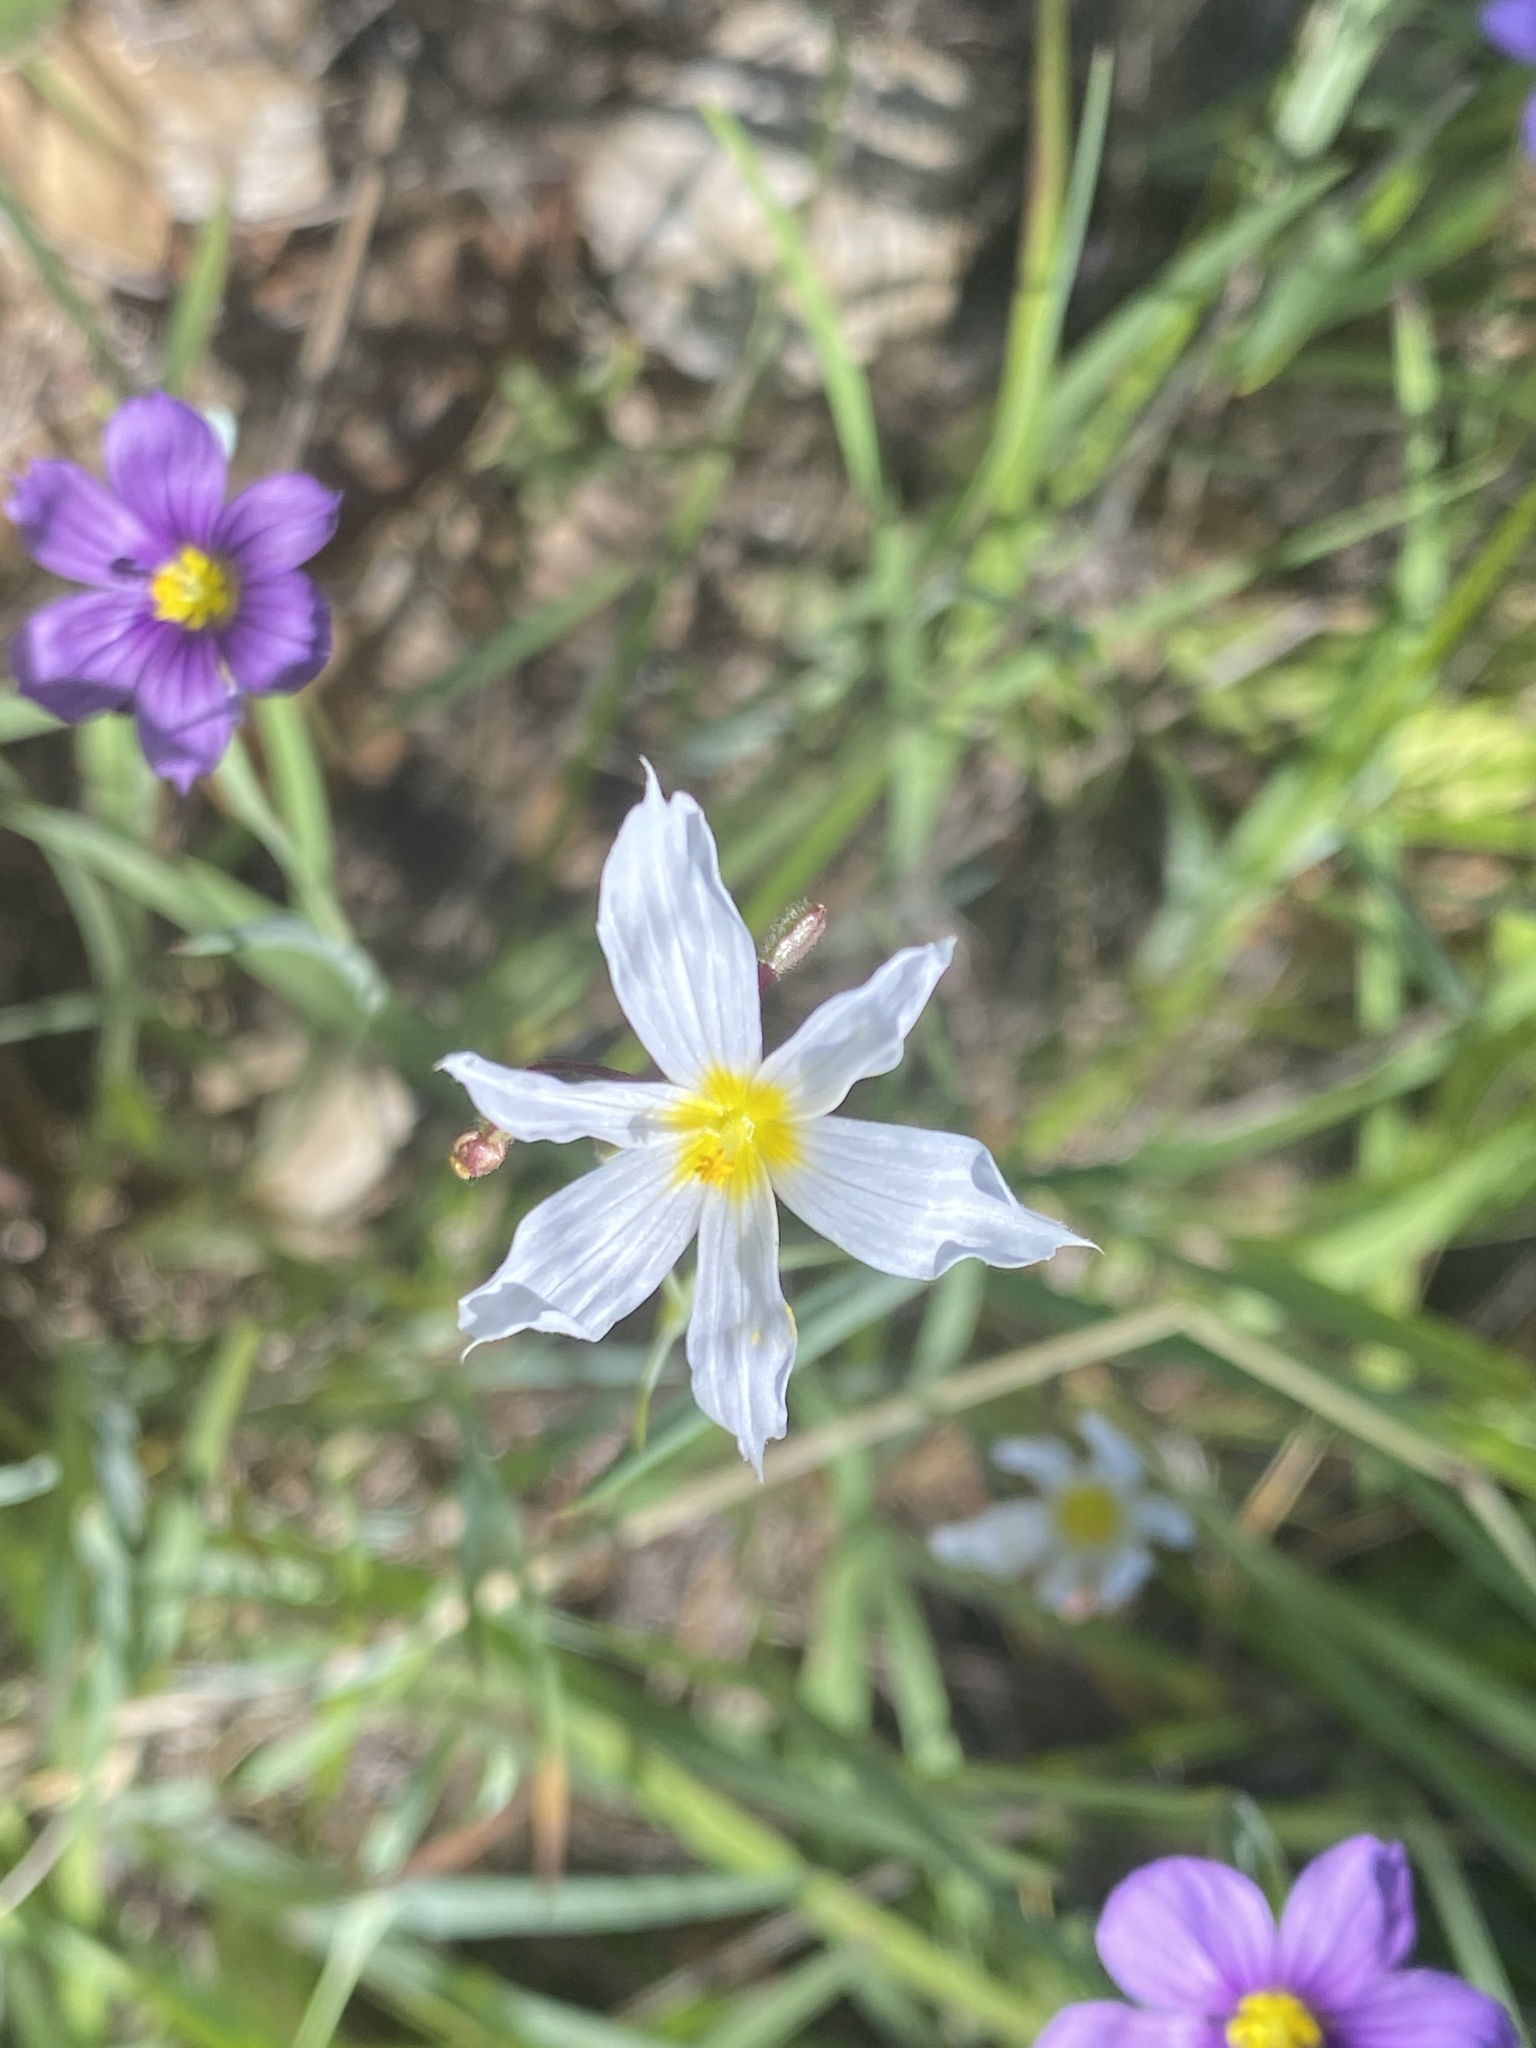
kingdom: Plantae
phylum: Tracheophyta
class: Liliopsida
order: Asparagales
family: Iridaceae
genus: Sisyrinchium
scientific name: Sisyrinchium bellum
